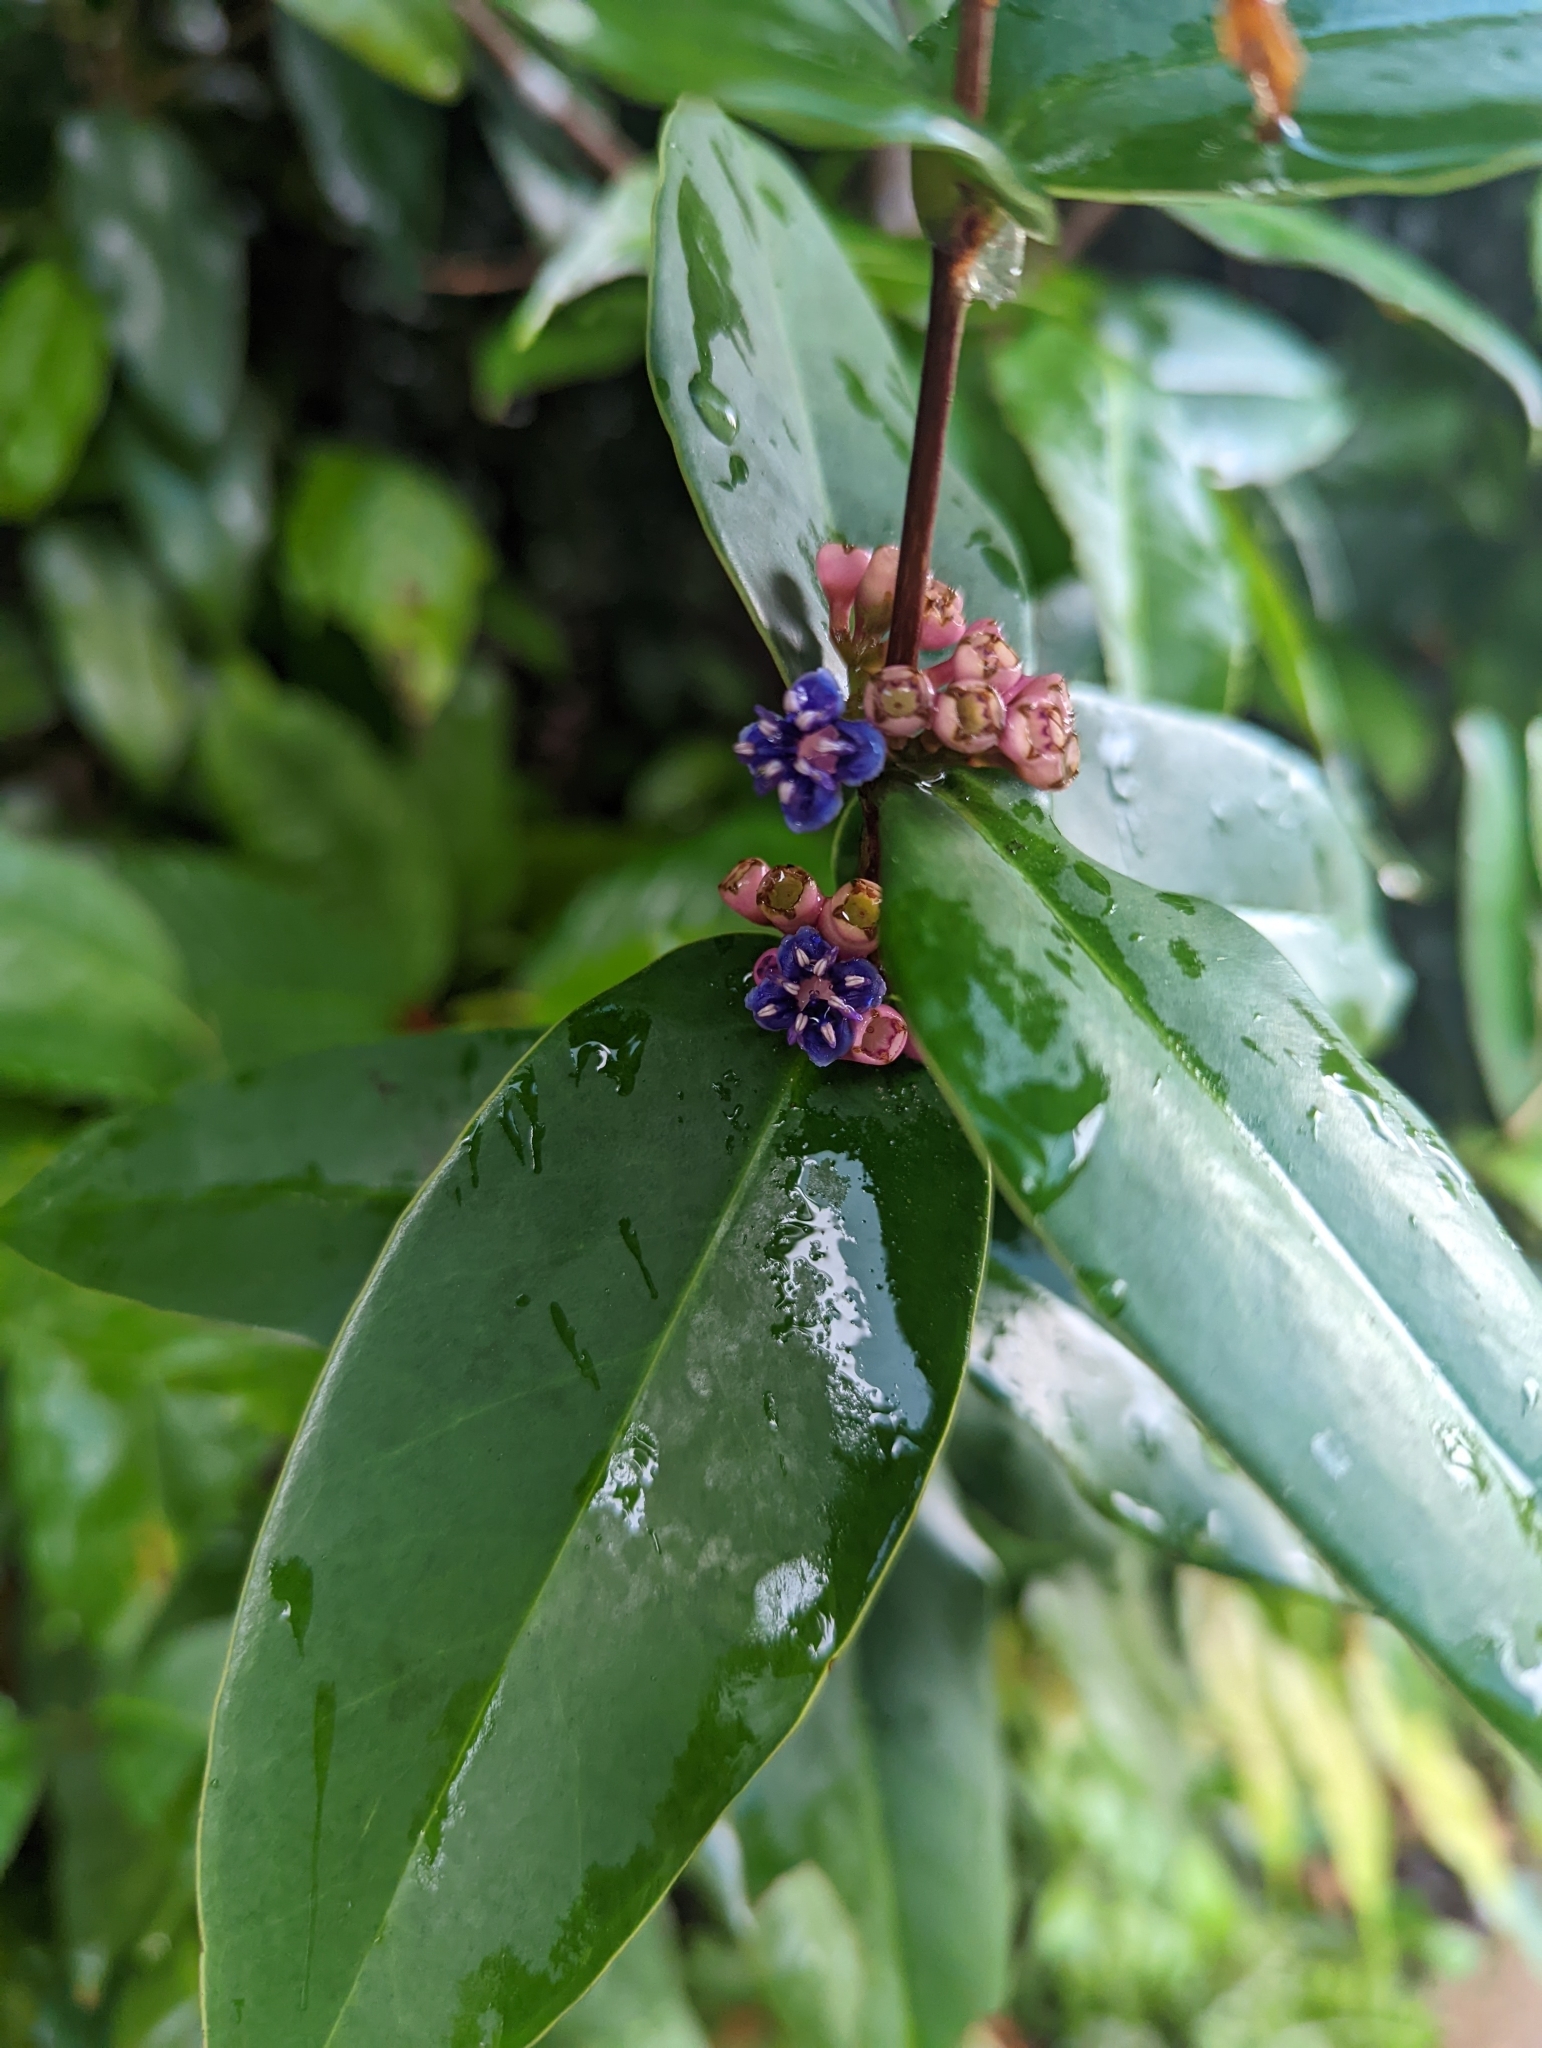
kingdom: Plantae
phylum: Tracheophyta
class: Magnoliopsida
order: Myrtales
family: Melastomataceae
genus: Memecylon
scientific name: Memecylon caeruleum
